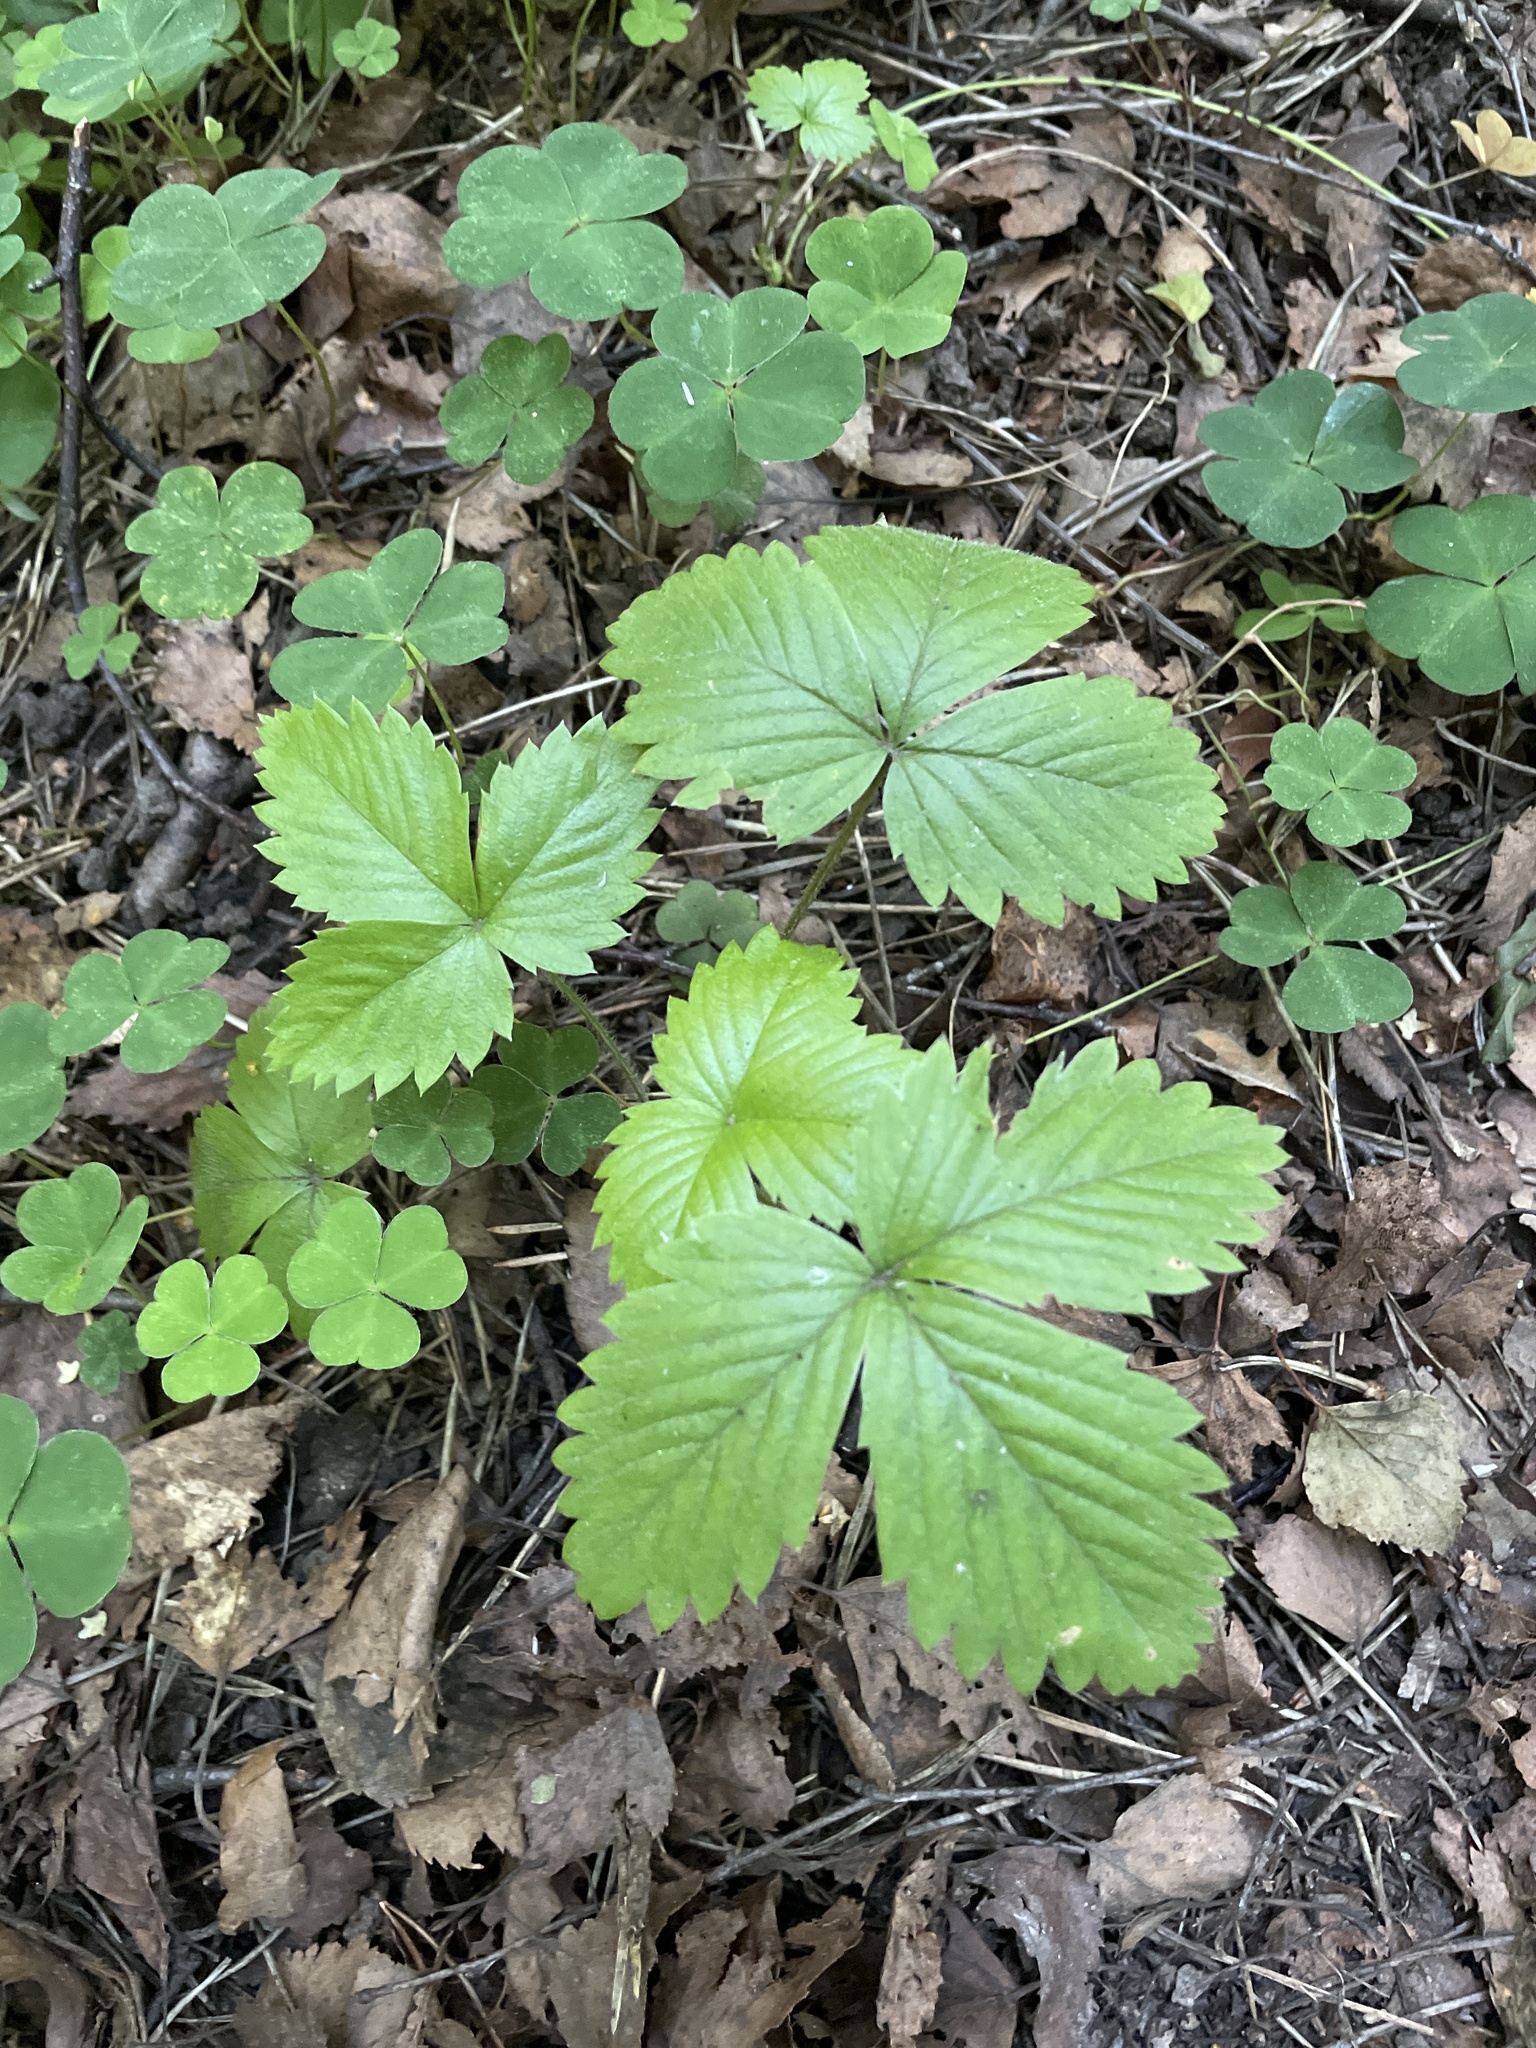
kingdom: Plantae
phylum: Tracheophyta
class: Magnoliopsida
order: Rosales
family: Rosaceae
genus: Fragaria
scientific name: Fragaria vesca
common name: Wild strawberry
